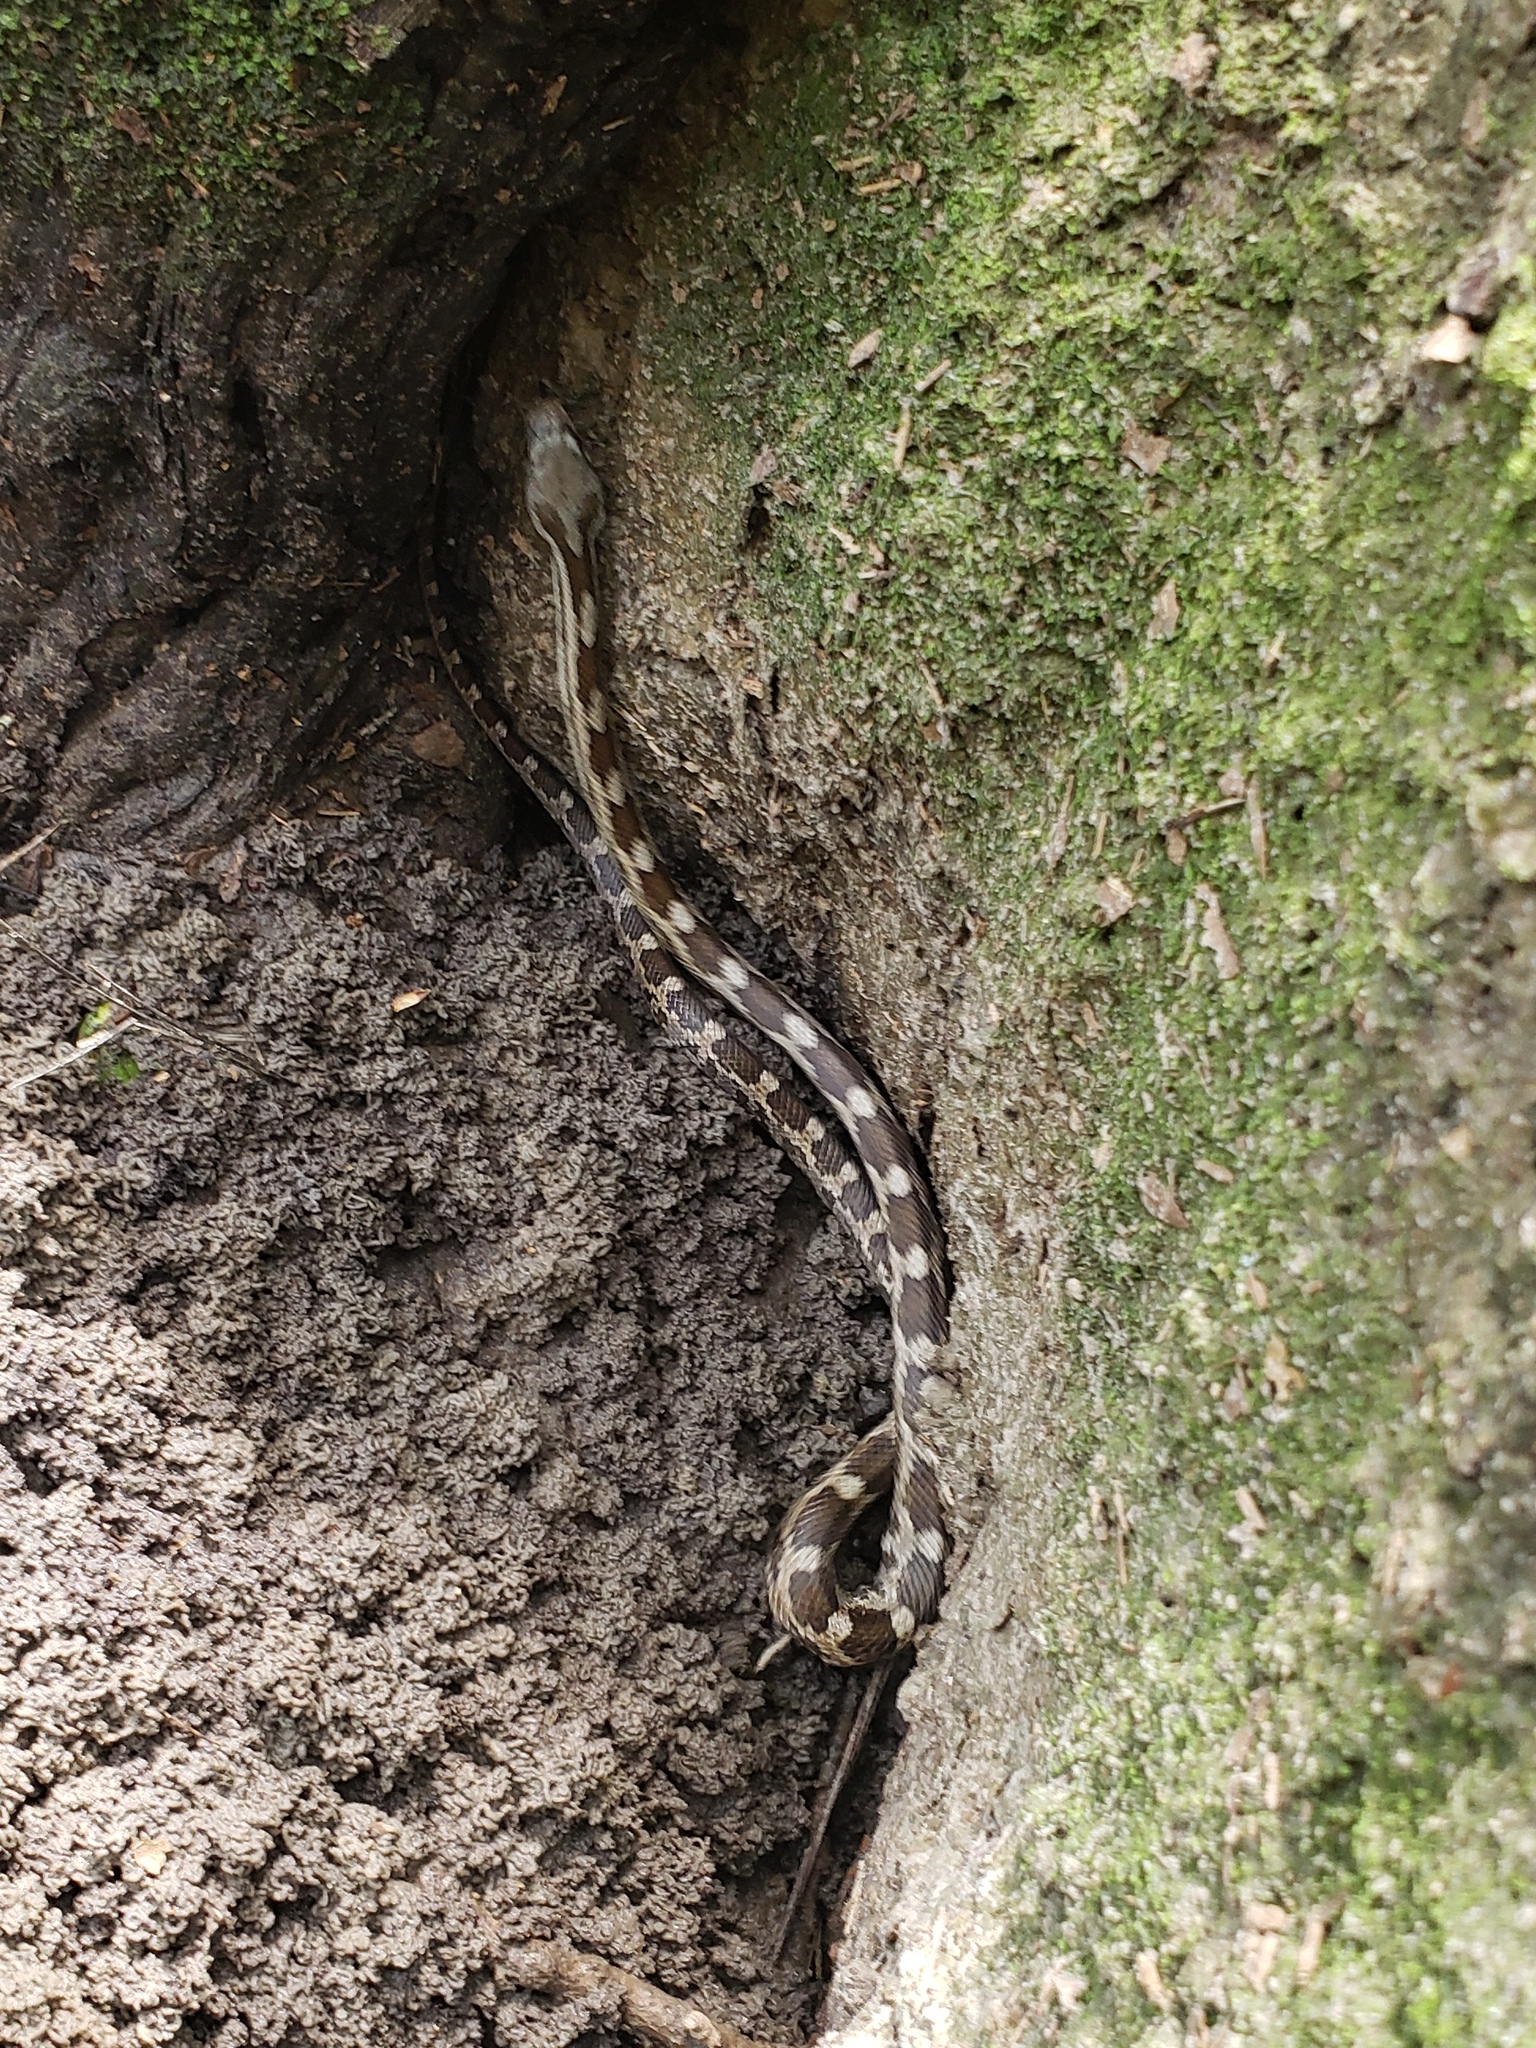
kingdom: Animalia
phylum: Chordata
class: Squamata
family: Colubridae
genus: Pantherophis
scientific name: Pantherophis spiloides
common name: Gray rat snake
